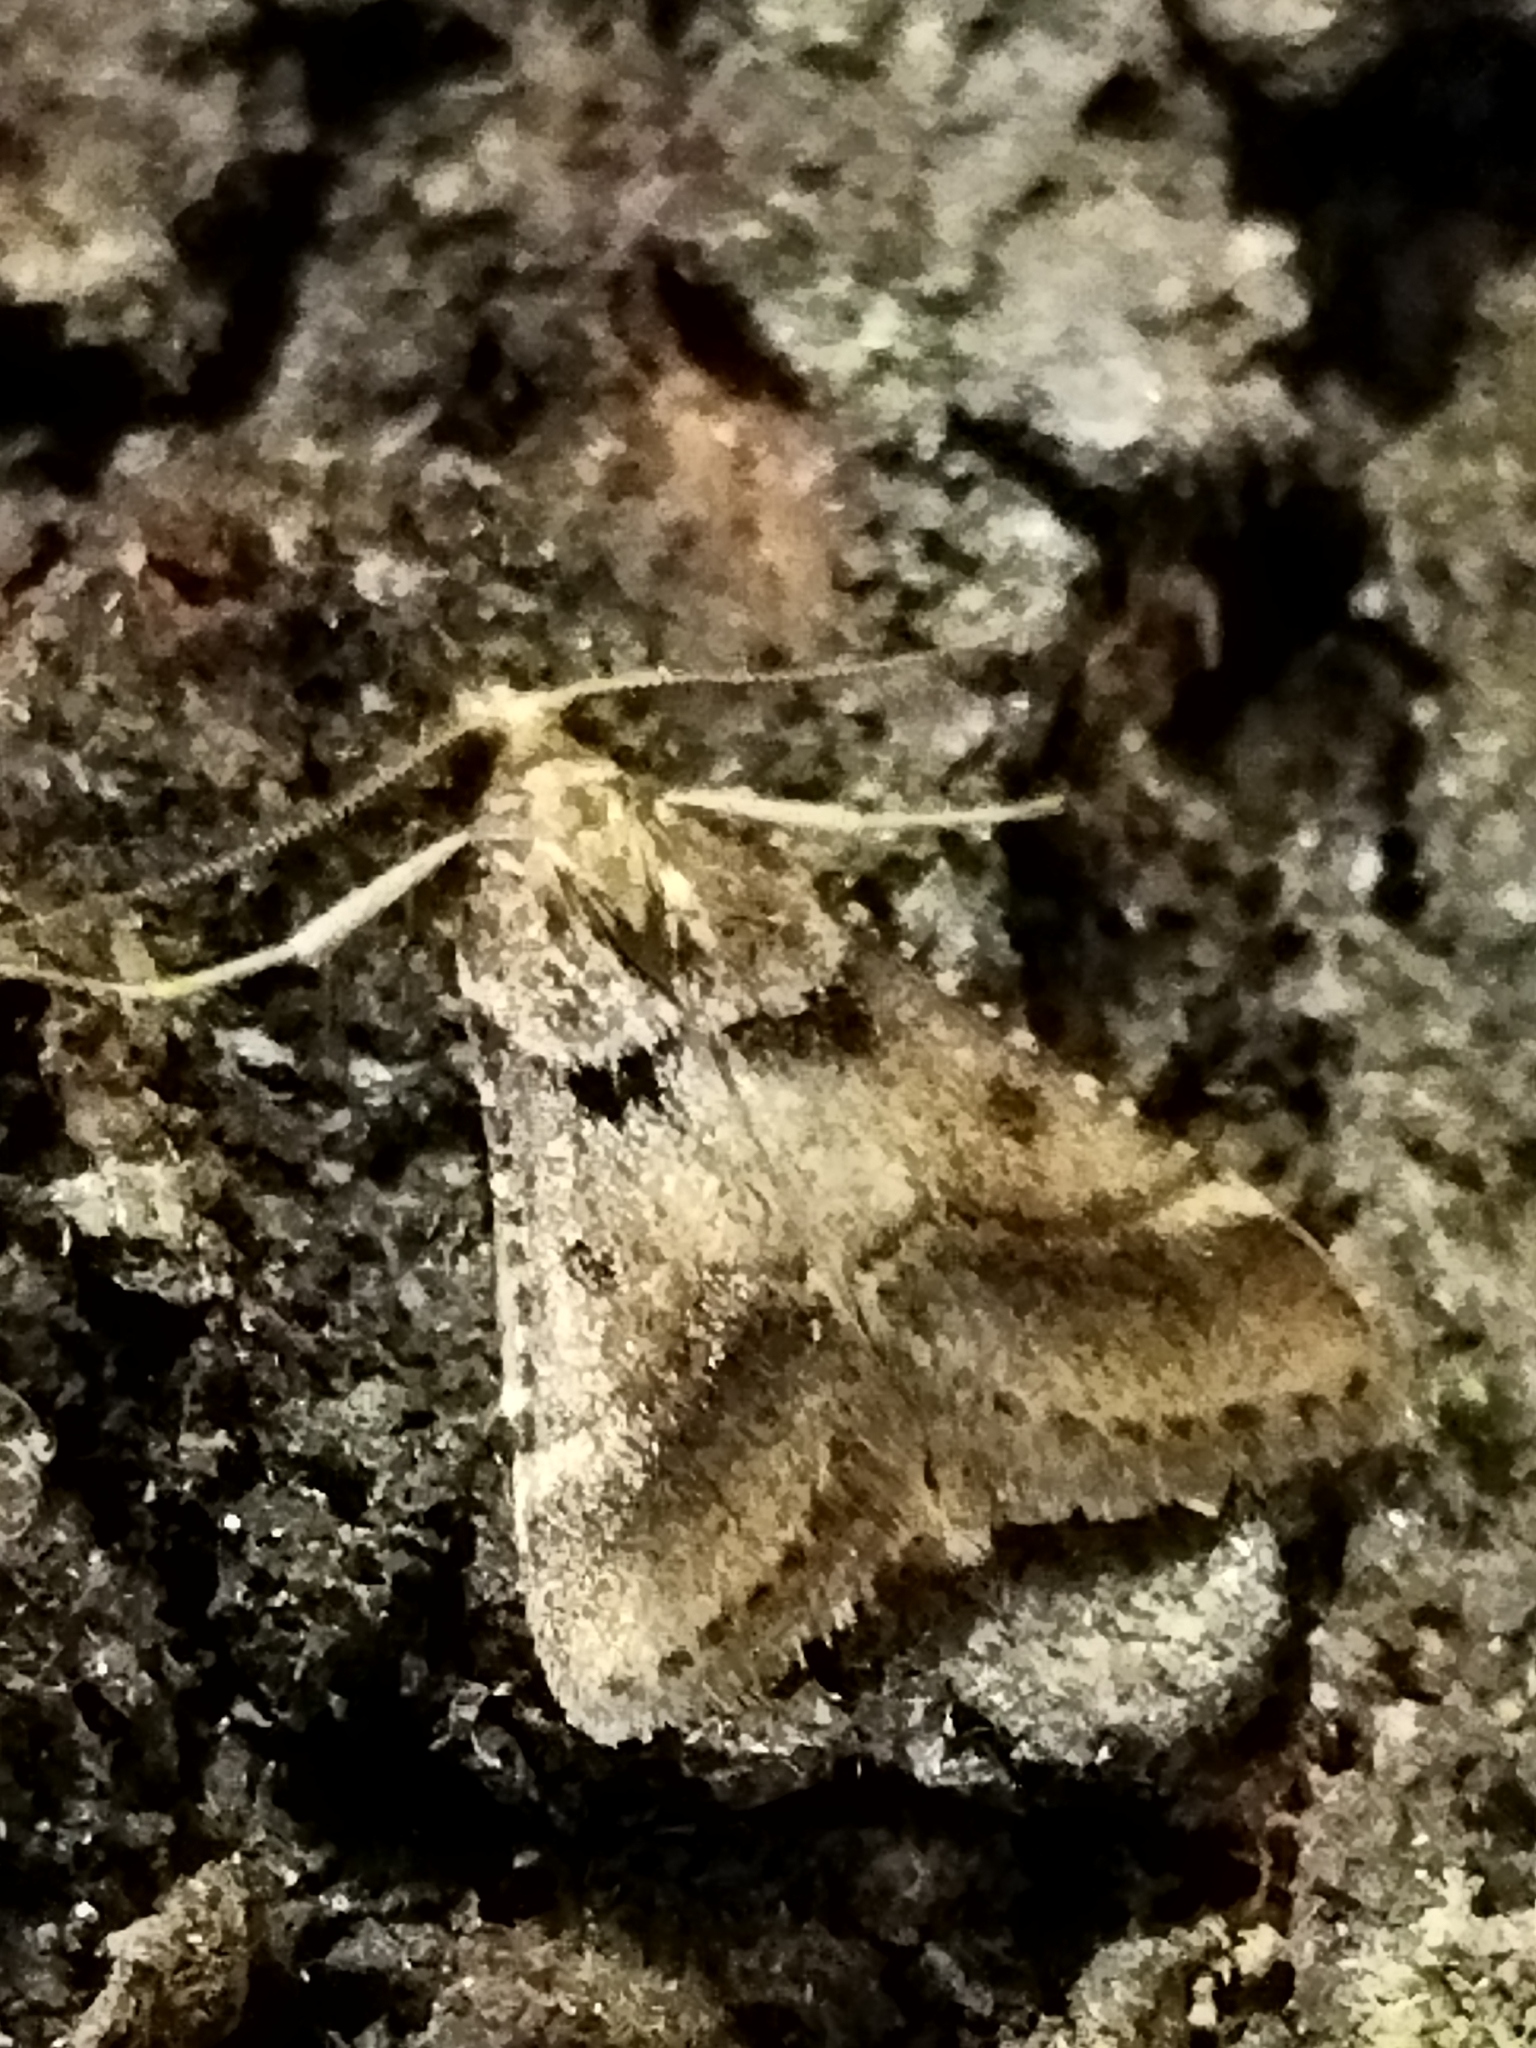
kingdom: Animalia
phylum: Arthropoda
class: Insecta
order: Lepidoptera
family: Pyralidae
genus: Stemmatophora
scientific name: Stemmatophora brunnealis
